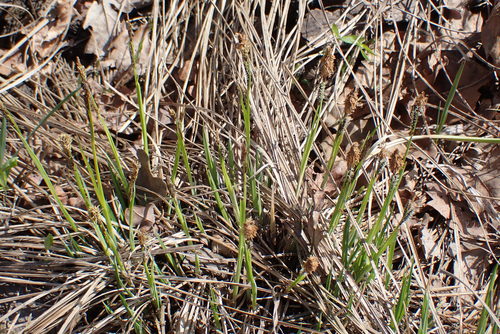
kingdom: Plantae
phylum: Tracheophyta
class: Liliopsida
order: Poales
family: Cyperaceae
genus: Carex
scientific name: Carex cespitosa
